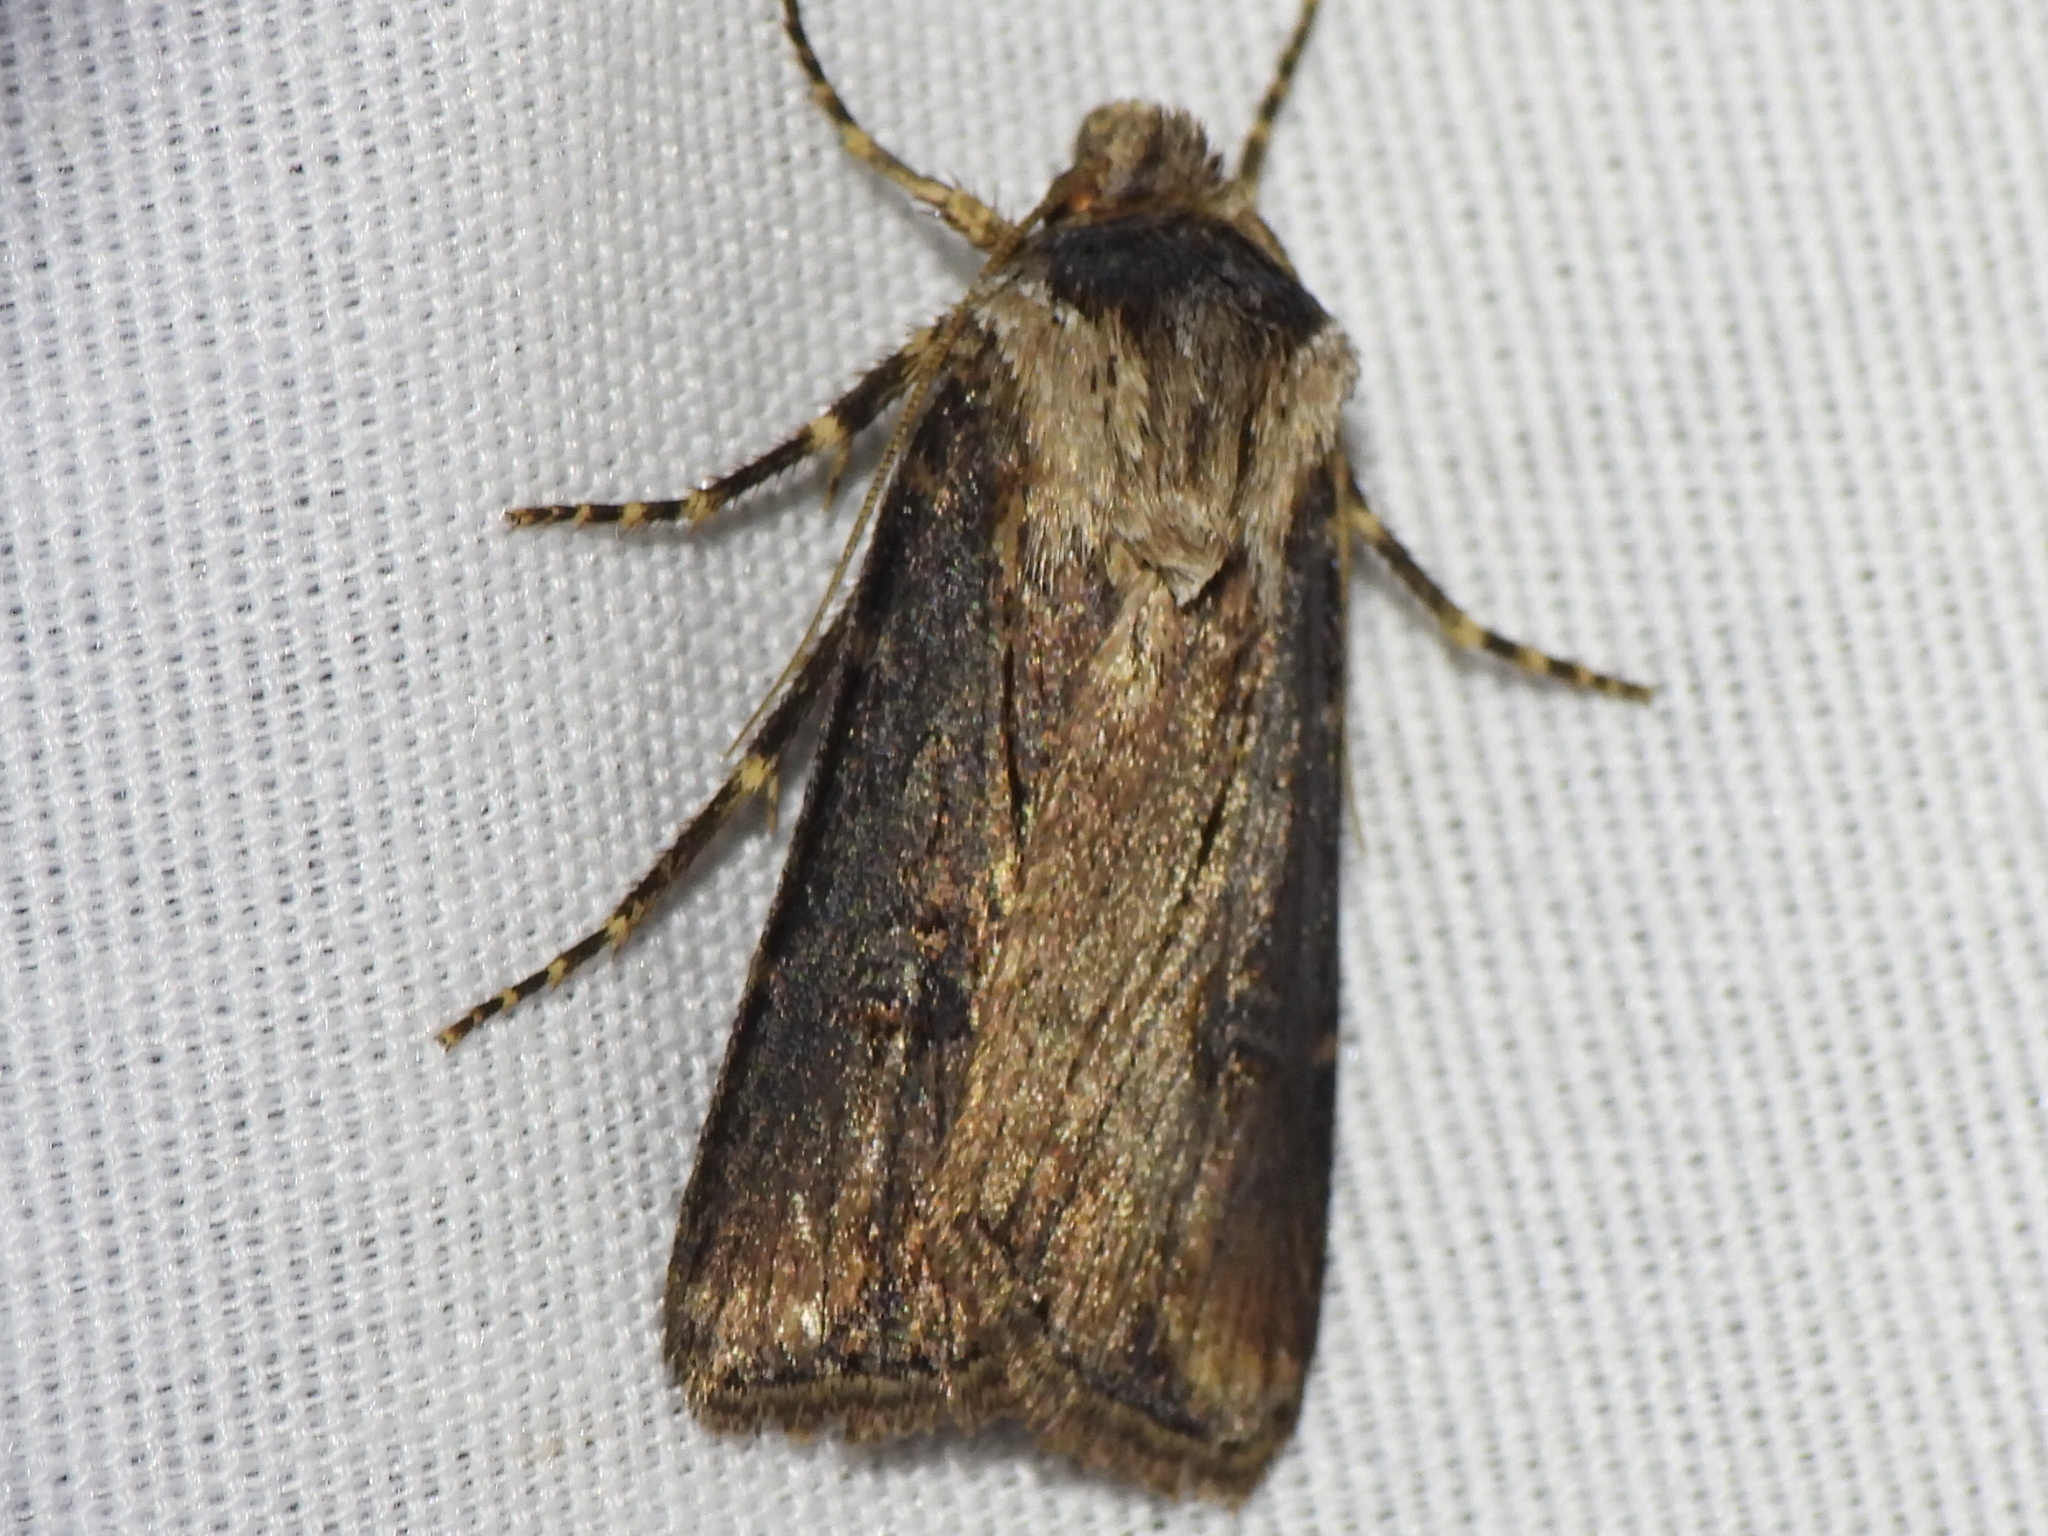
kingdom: Animalia
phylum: Arthropoda
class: Insecta
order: Lepidoptera
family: Noctuidae
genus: Agrotis
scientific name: Agrotis venerabilis
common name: Venerable dart
